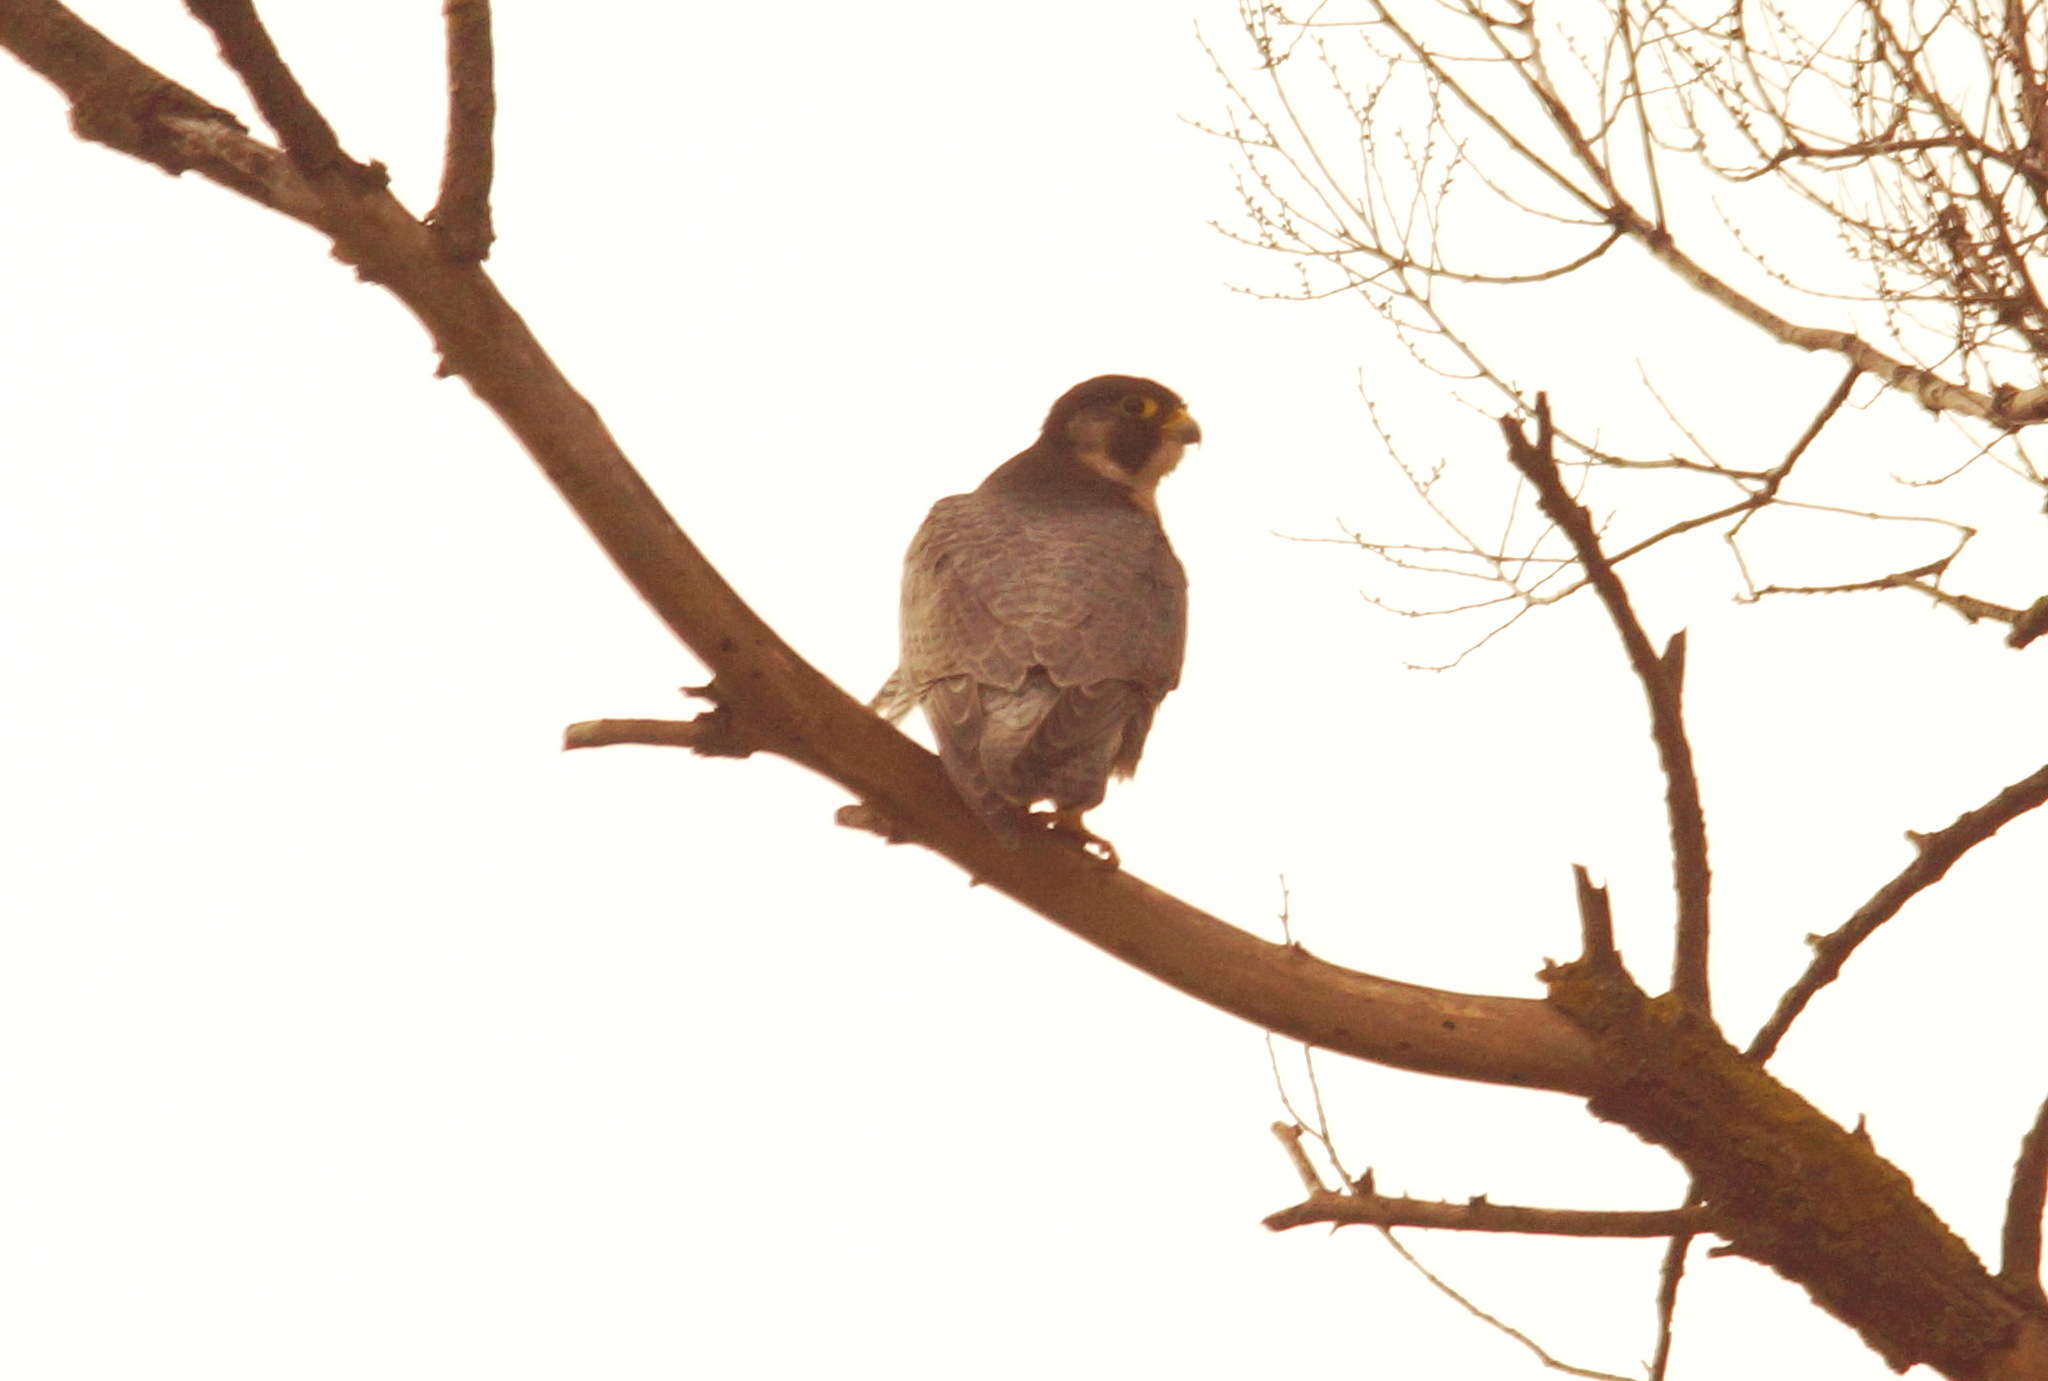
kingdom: Animalia
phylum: Chordata
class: Aves
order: Falconiformes
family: Falconidae
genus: Falco
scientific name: Falco peregrinus
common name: Peregrine falcon
